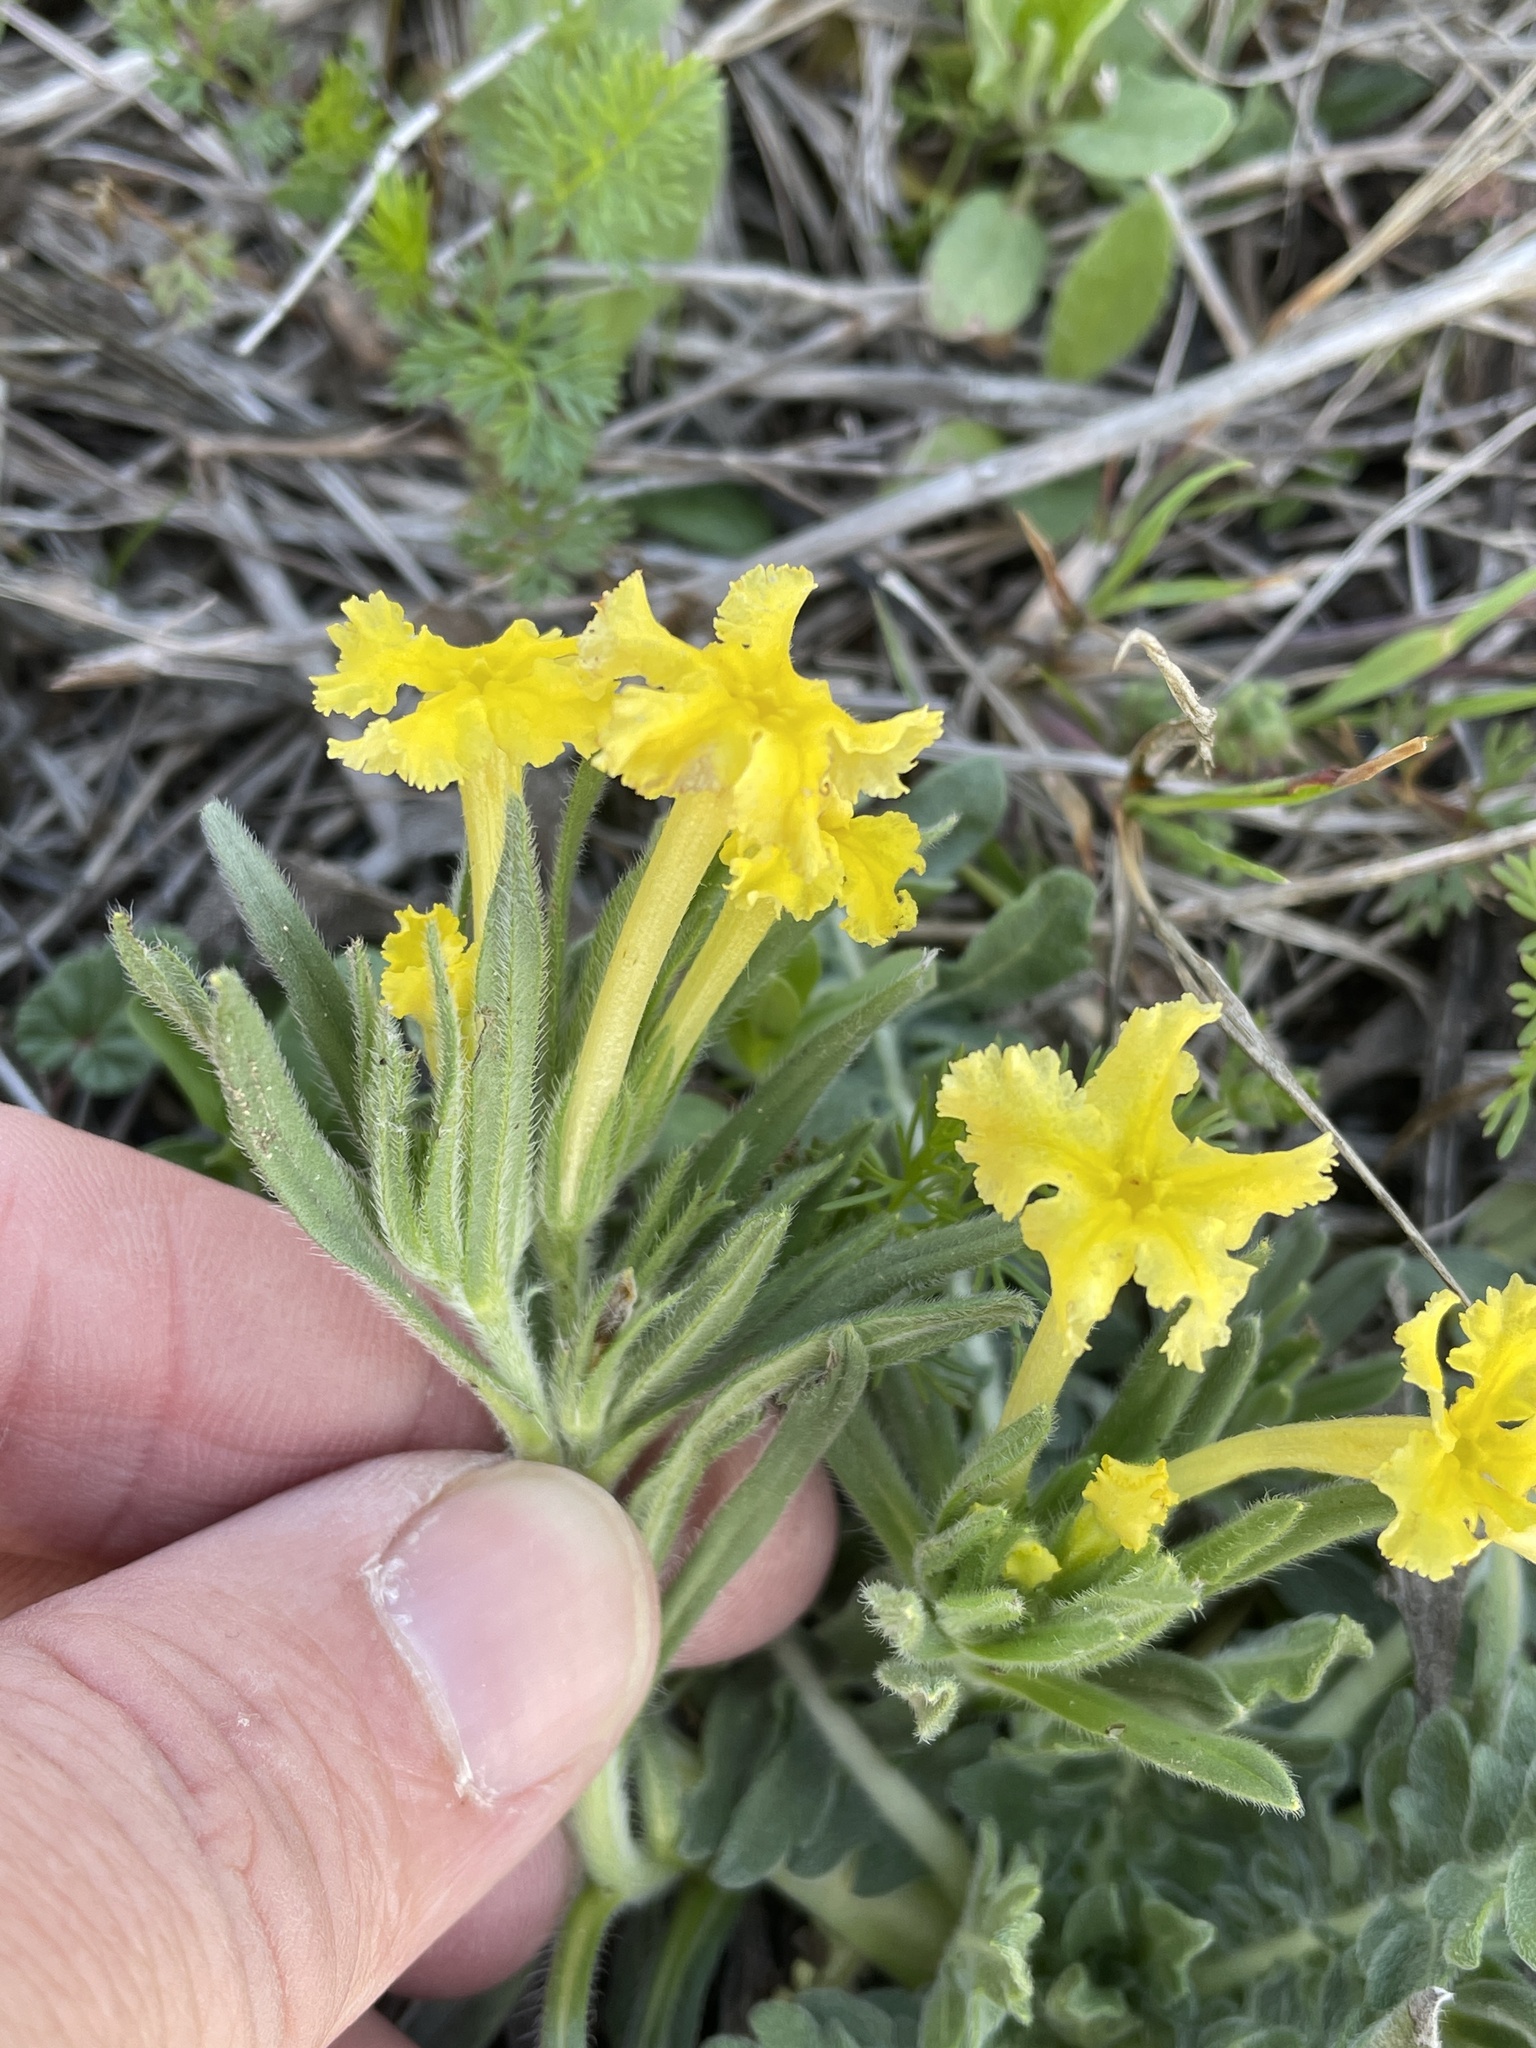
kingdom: Plantae
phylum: Tracheophyta
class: Magnoliopsida
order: Boraginales
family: Boraginaceae
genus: Lithospermum
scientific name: Lithospermum incisum
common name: Fringed gromwell
